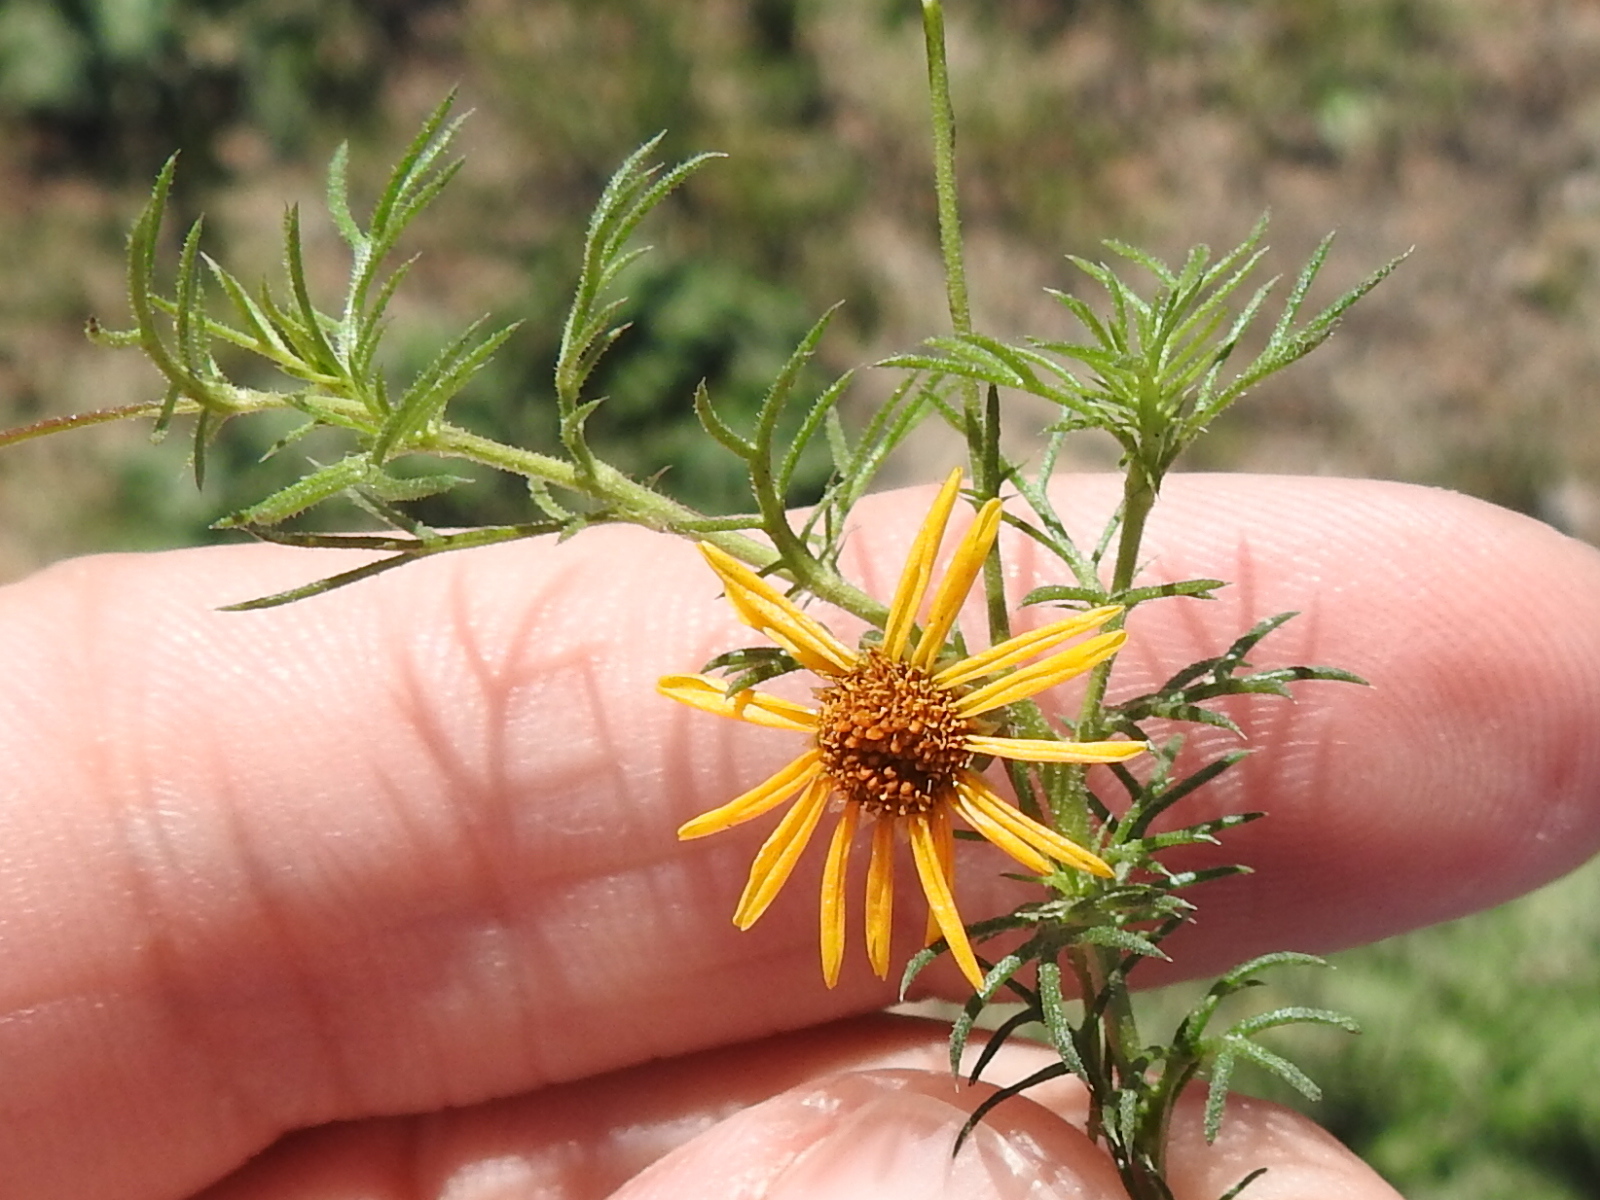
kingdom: Plantae
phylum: Tracheophyta
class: Magnoliopsida
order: Asterales
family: Asteraceae
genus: Thymophylla
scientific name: Thymophylla pentachaeta
